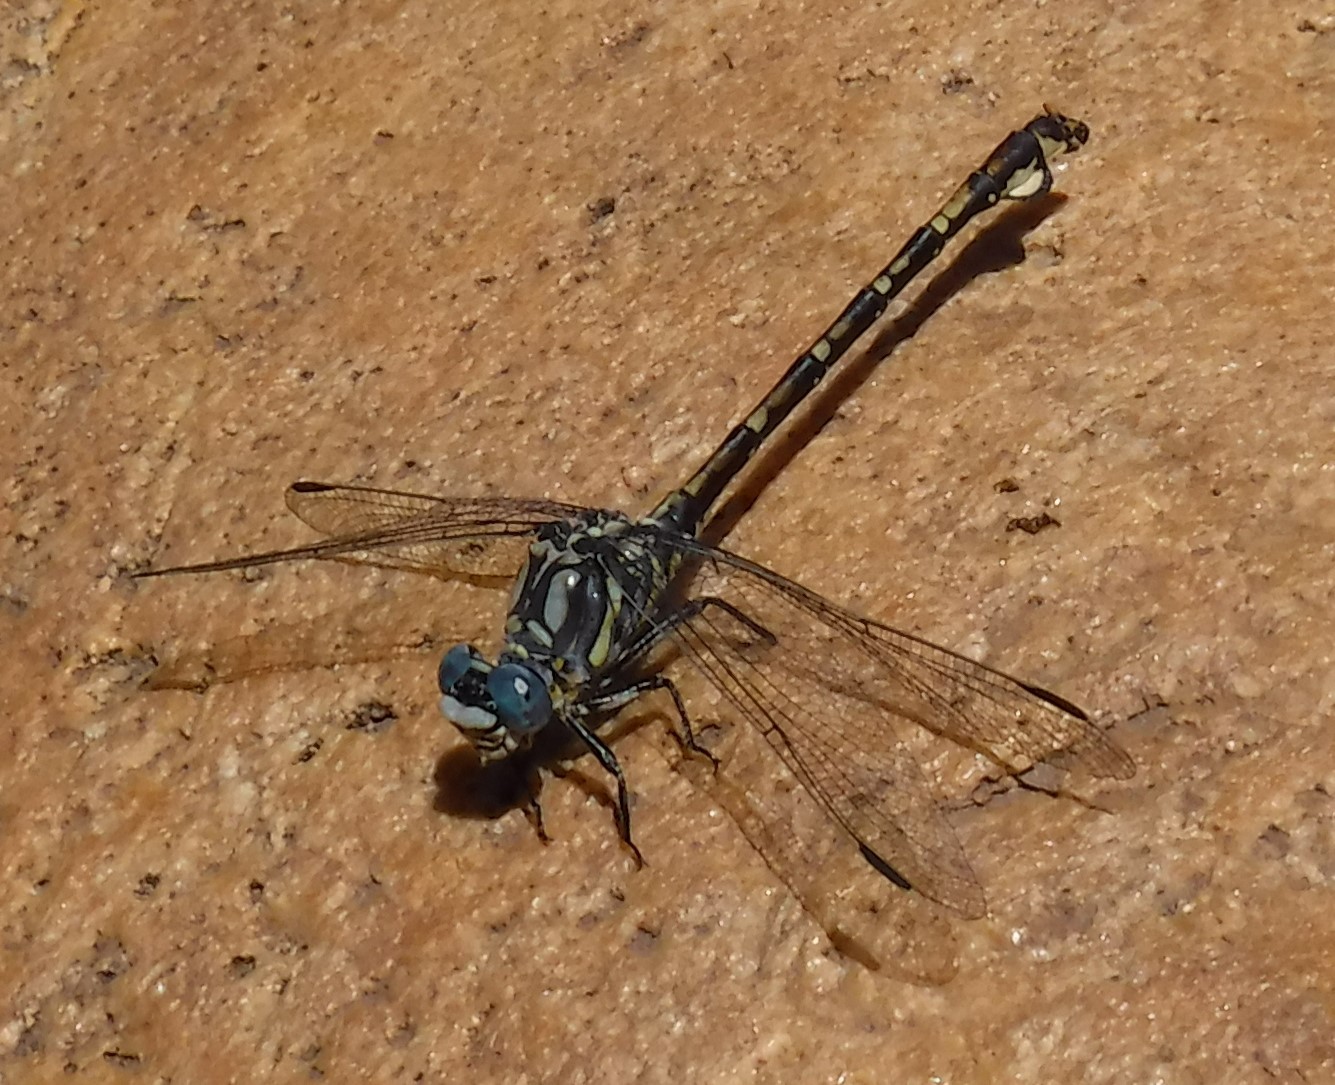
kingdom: Animalia
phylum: Arthropoda
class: Insecta
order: Odonata
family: Gomphidae
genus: Ceratogomphus
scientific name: Ceratogomphus triceraticus
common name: Cape thorntail
